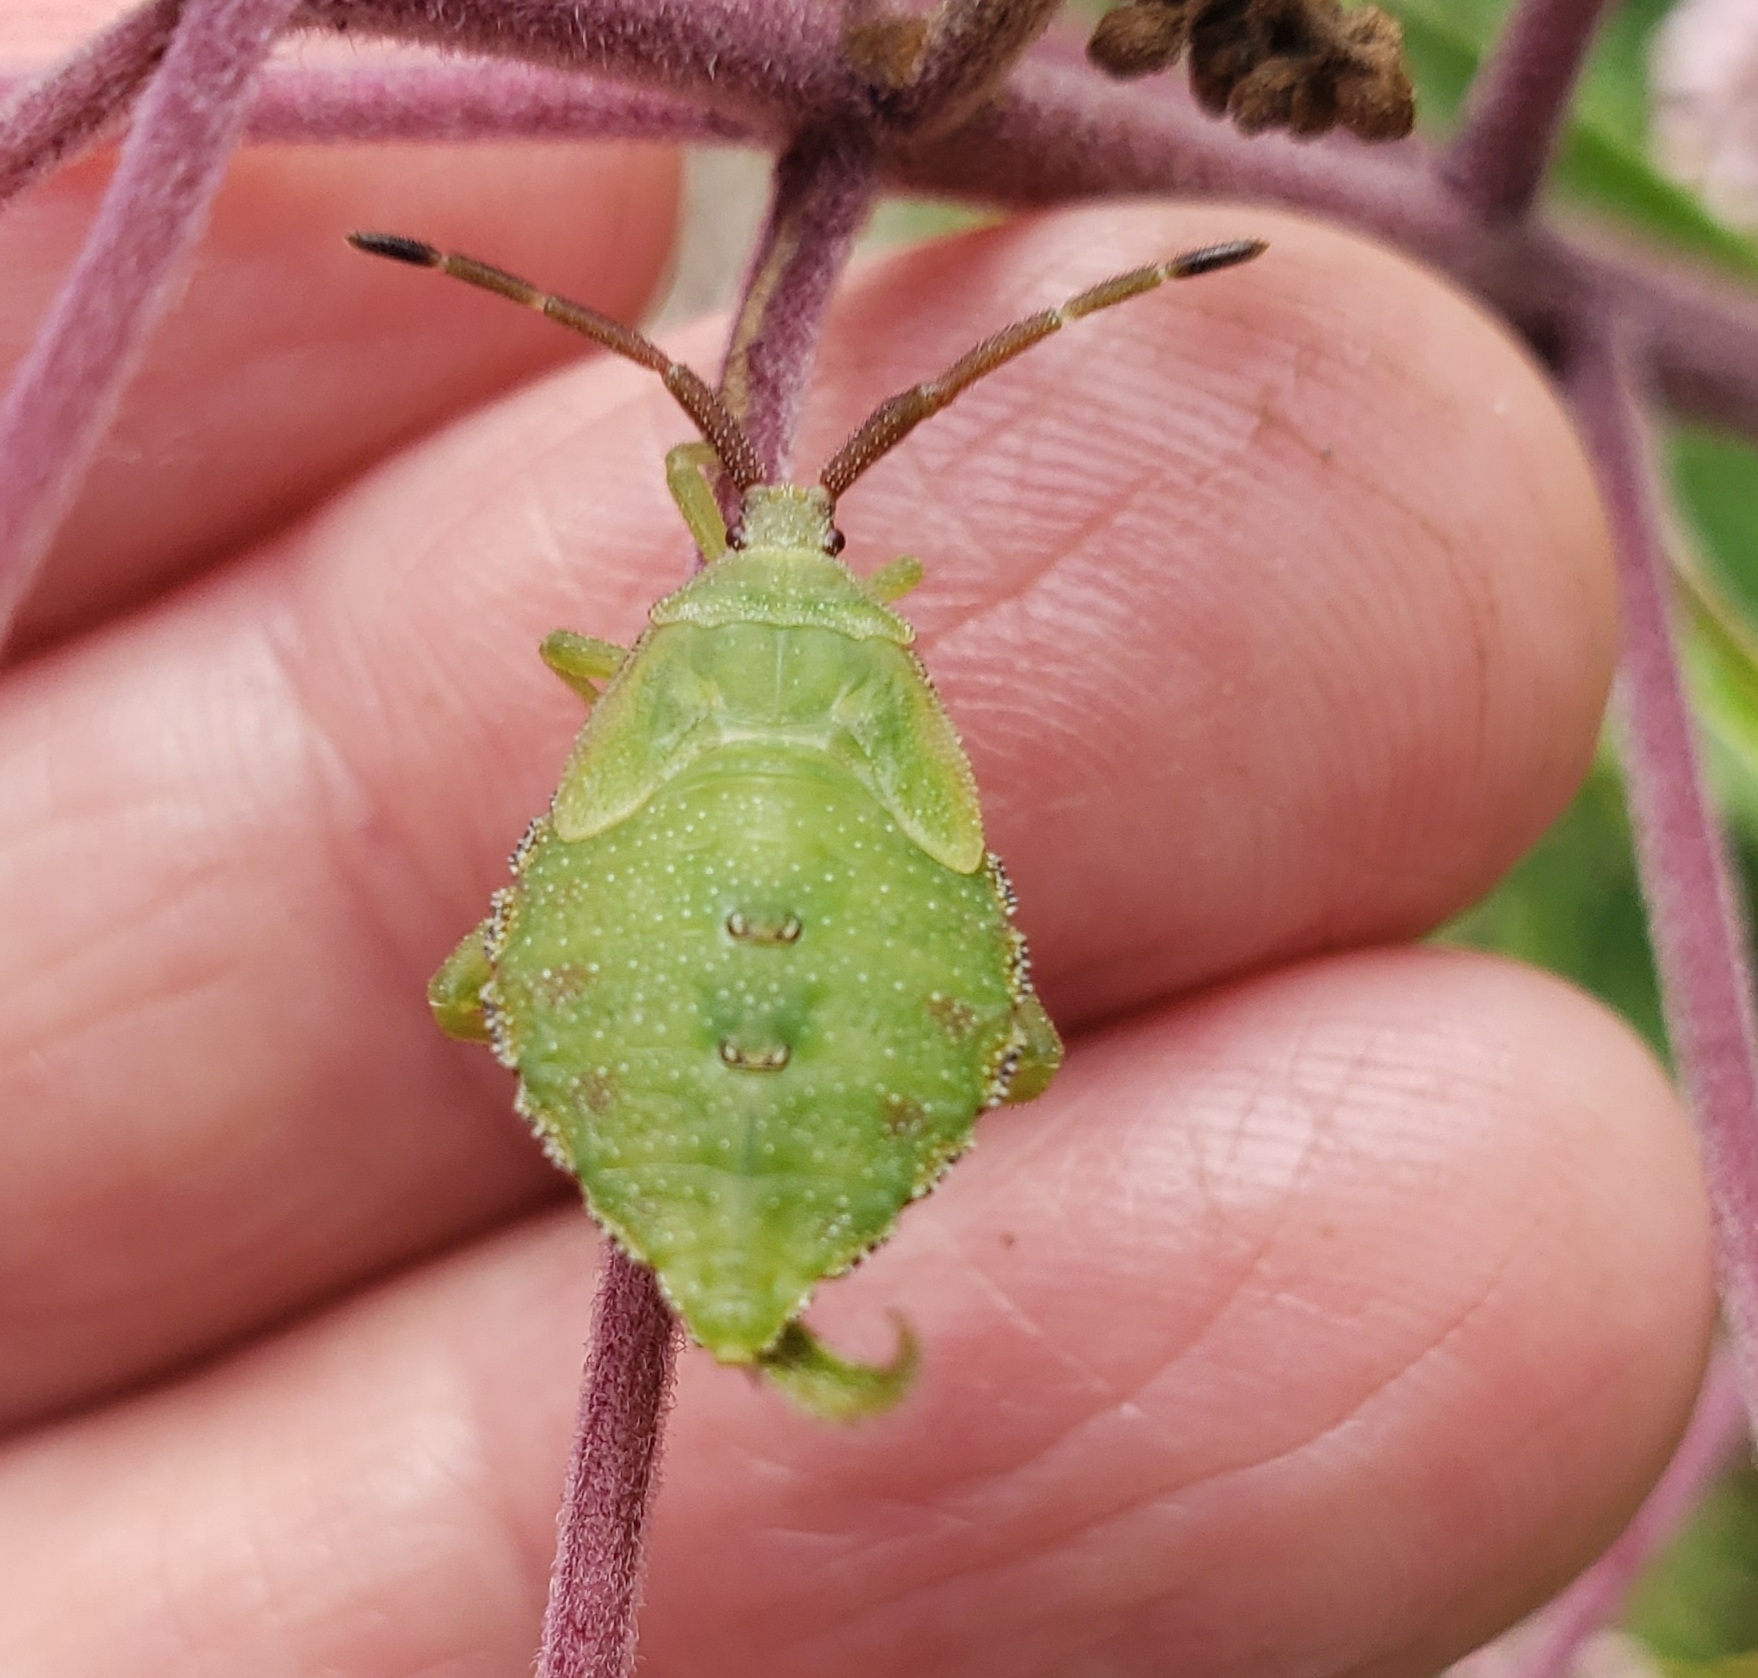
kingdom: Animalia
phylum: Arthropoda
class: Insecta
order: Hemiptera
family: Coreidae
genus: Piezogaster
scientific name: Piezogaster calcarator
